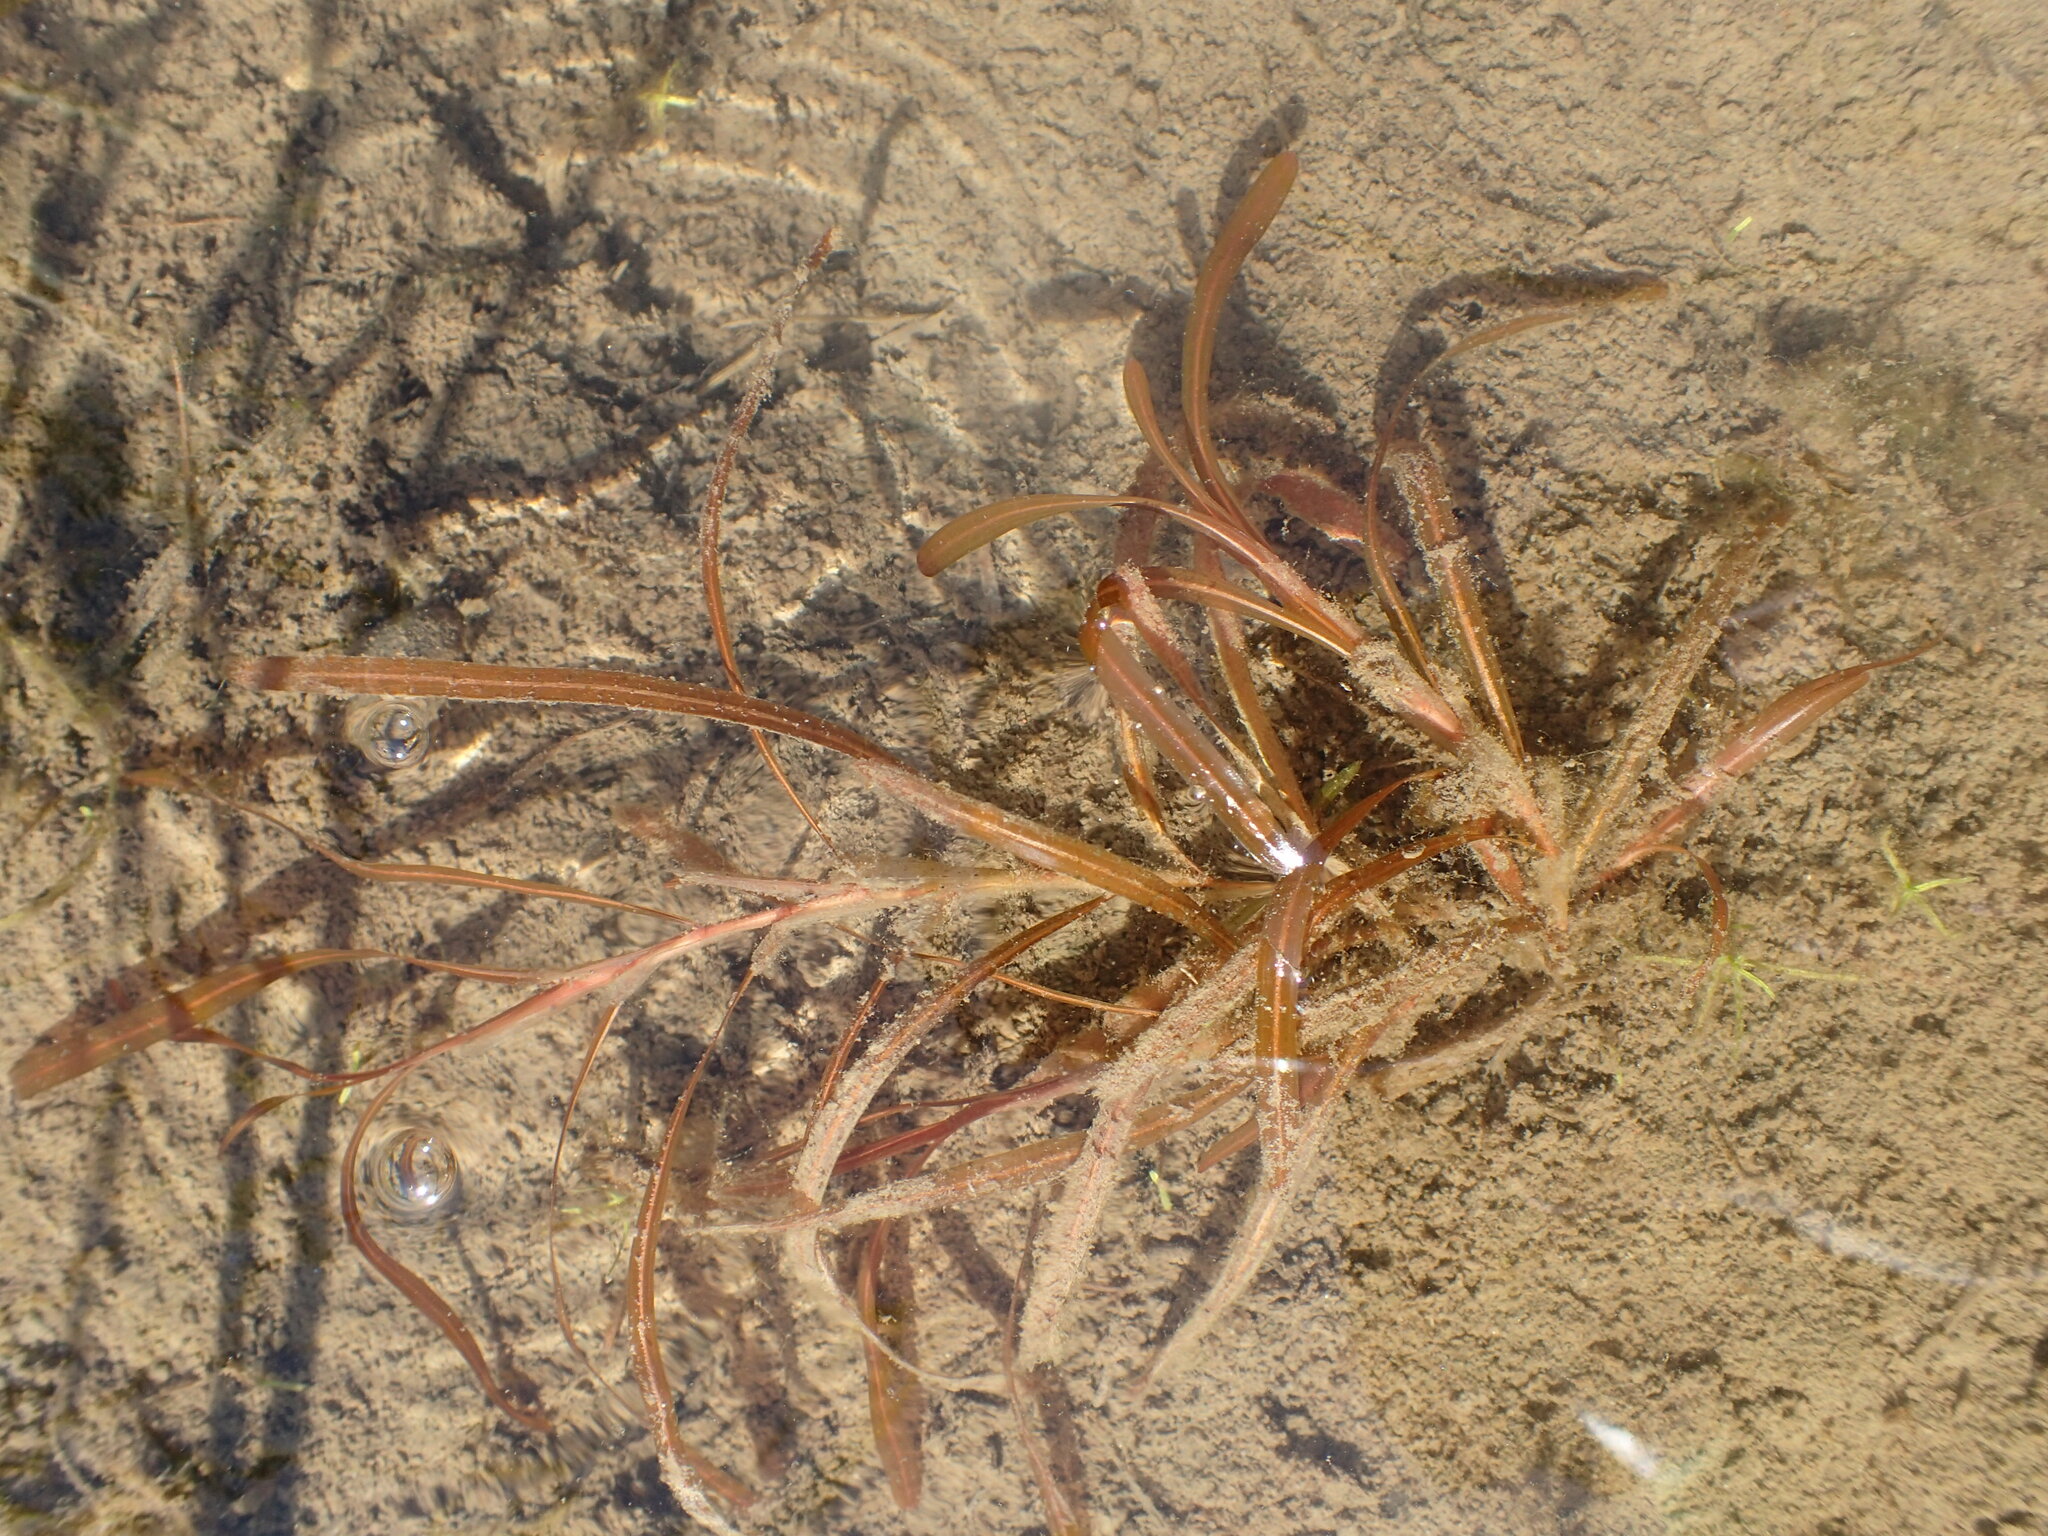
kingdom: Plantae
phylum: Tracheophyta
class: Liliopsida
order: Alismatales
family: Potamogetonaceae
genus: Potamogeton
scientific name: Potamogeton epihydrus
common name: American pondweed
